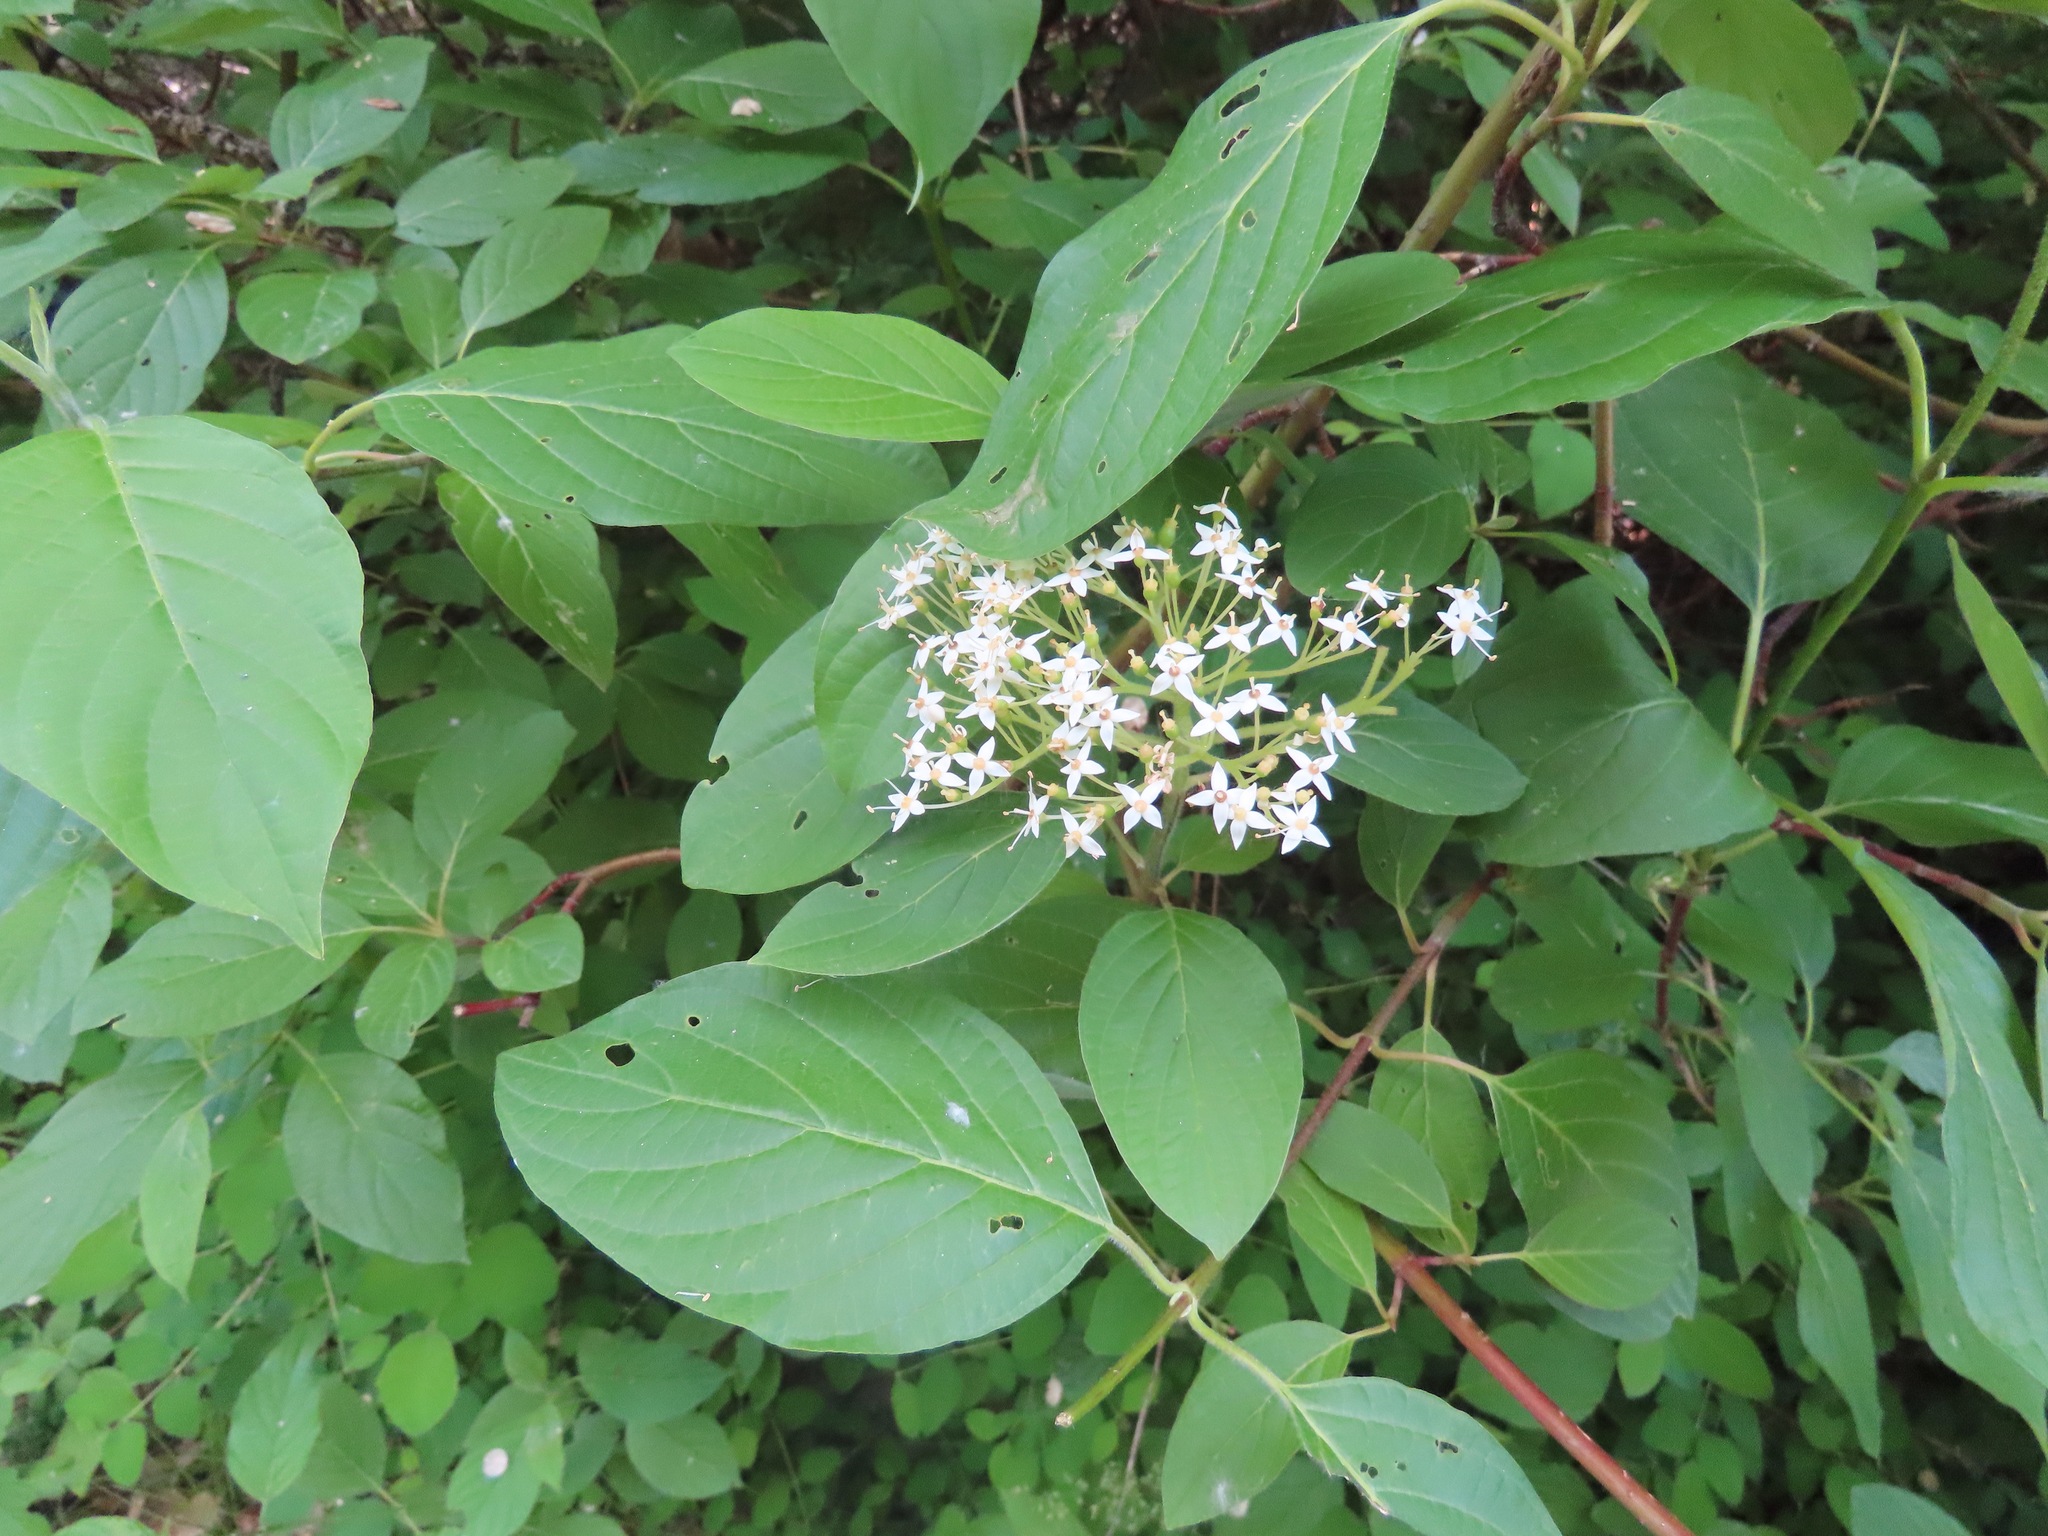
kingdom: Plantae
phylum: Tracheophyta
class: Magnoliopsida
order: Cornales
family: Cornaceae
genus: Cornus
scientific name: Cornus sericea
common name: Red-osier dogwood
